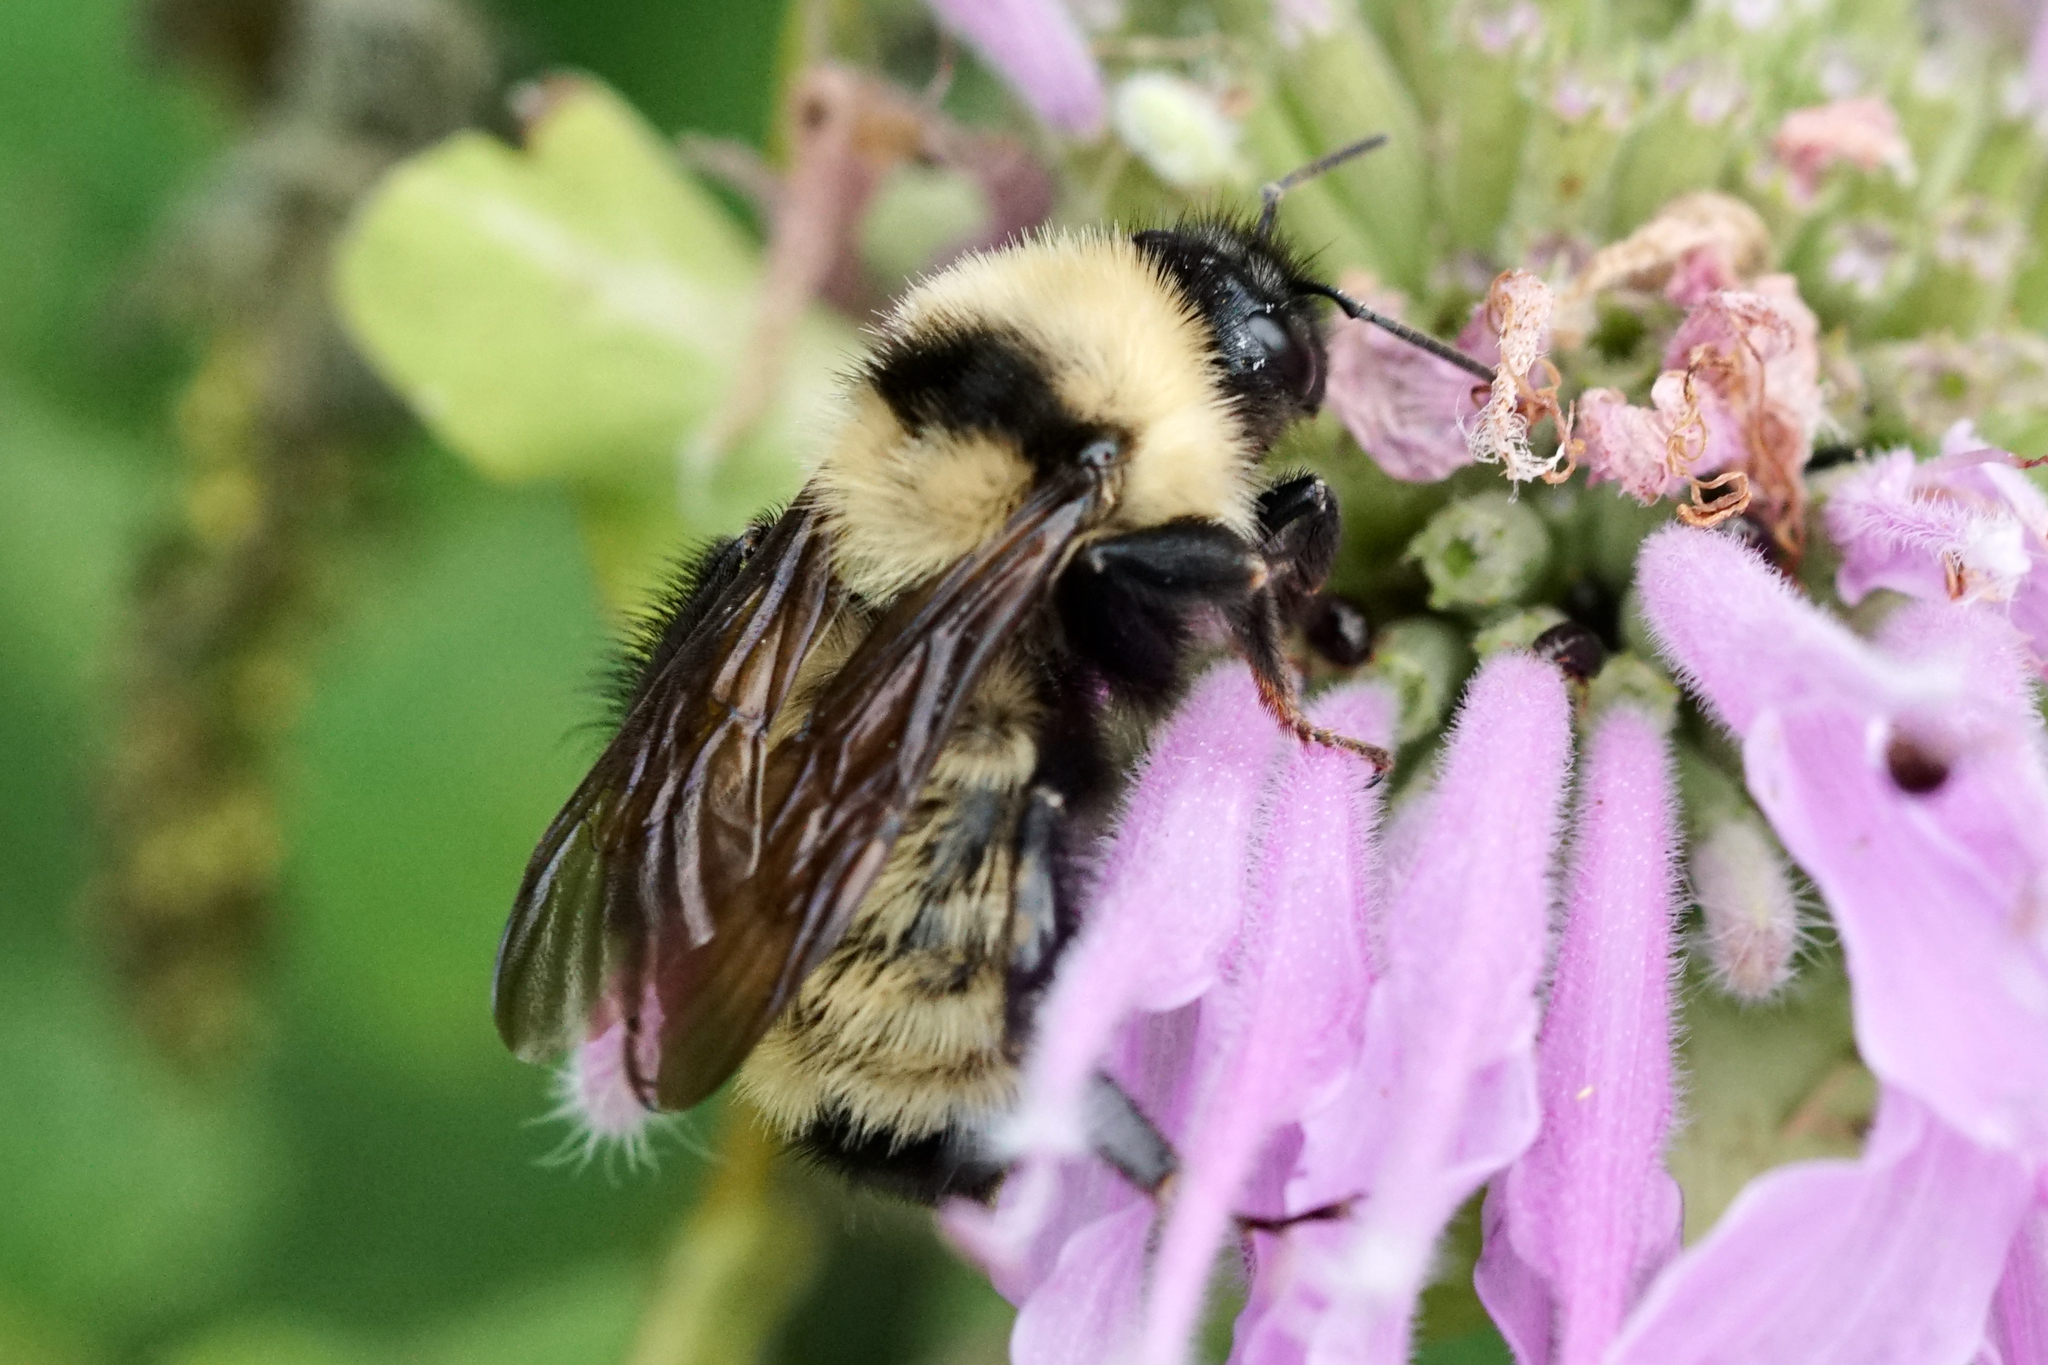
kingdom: Animalia
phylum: Arthropoda
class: Insecta
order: Hymenoptera
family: Apidae
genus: Bombus
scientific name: Bombus fervidus
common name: Yellow bumble bee
